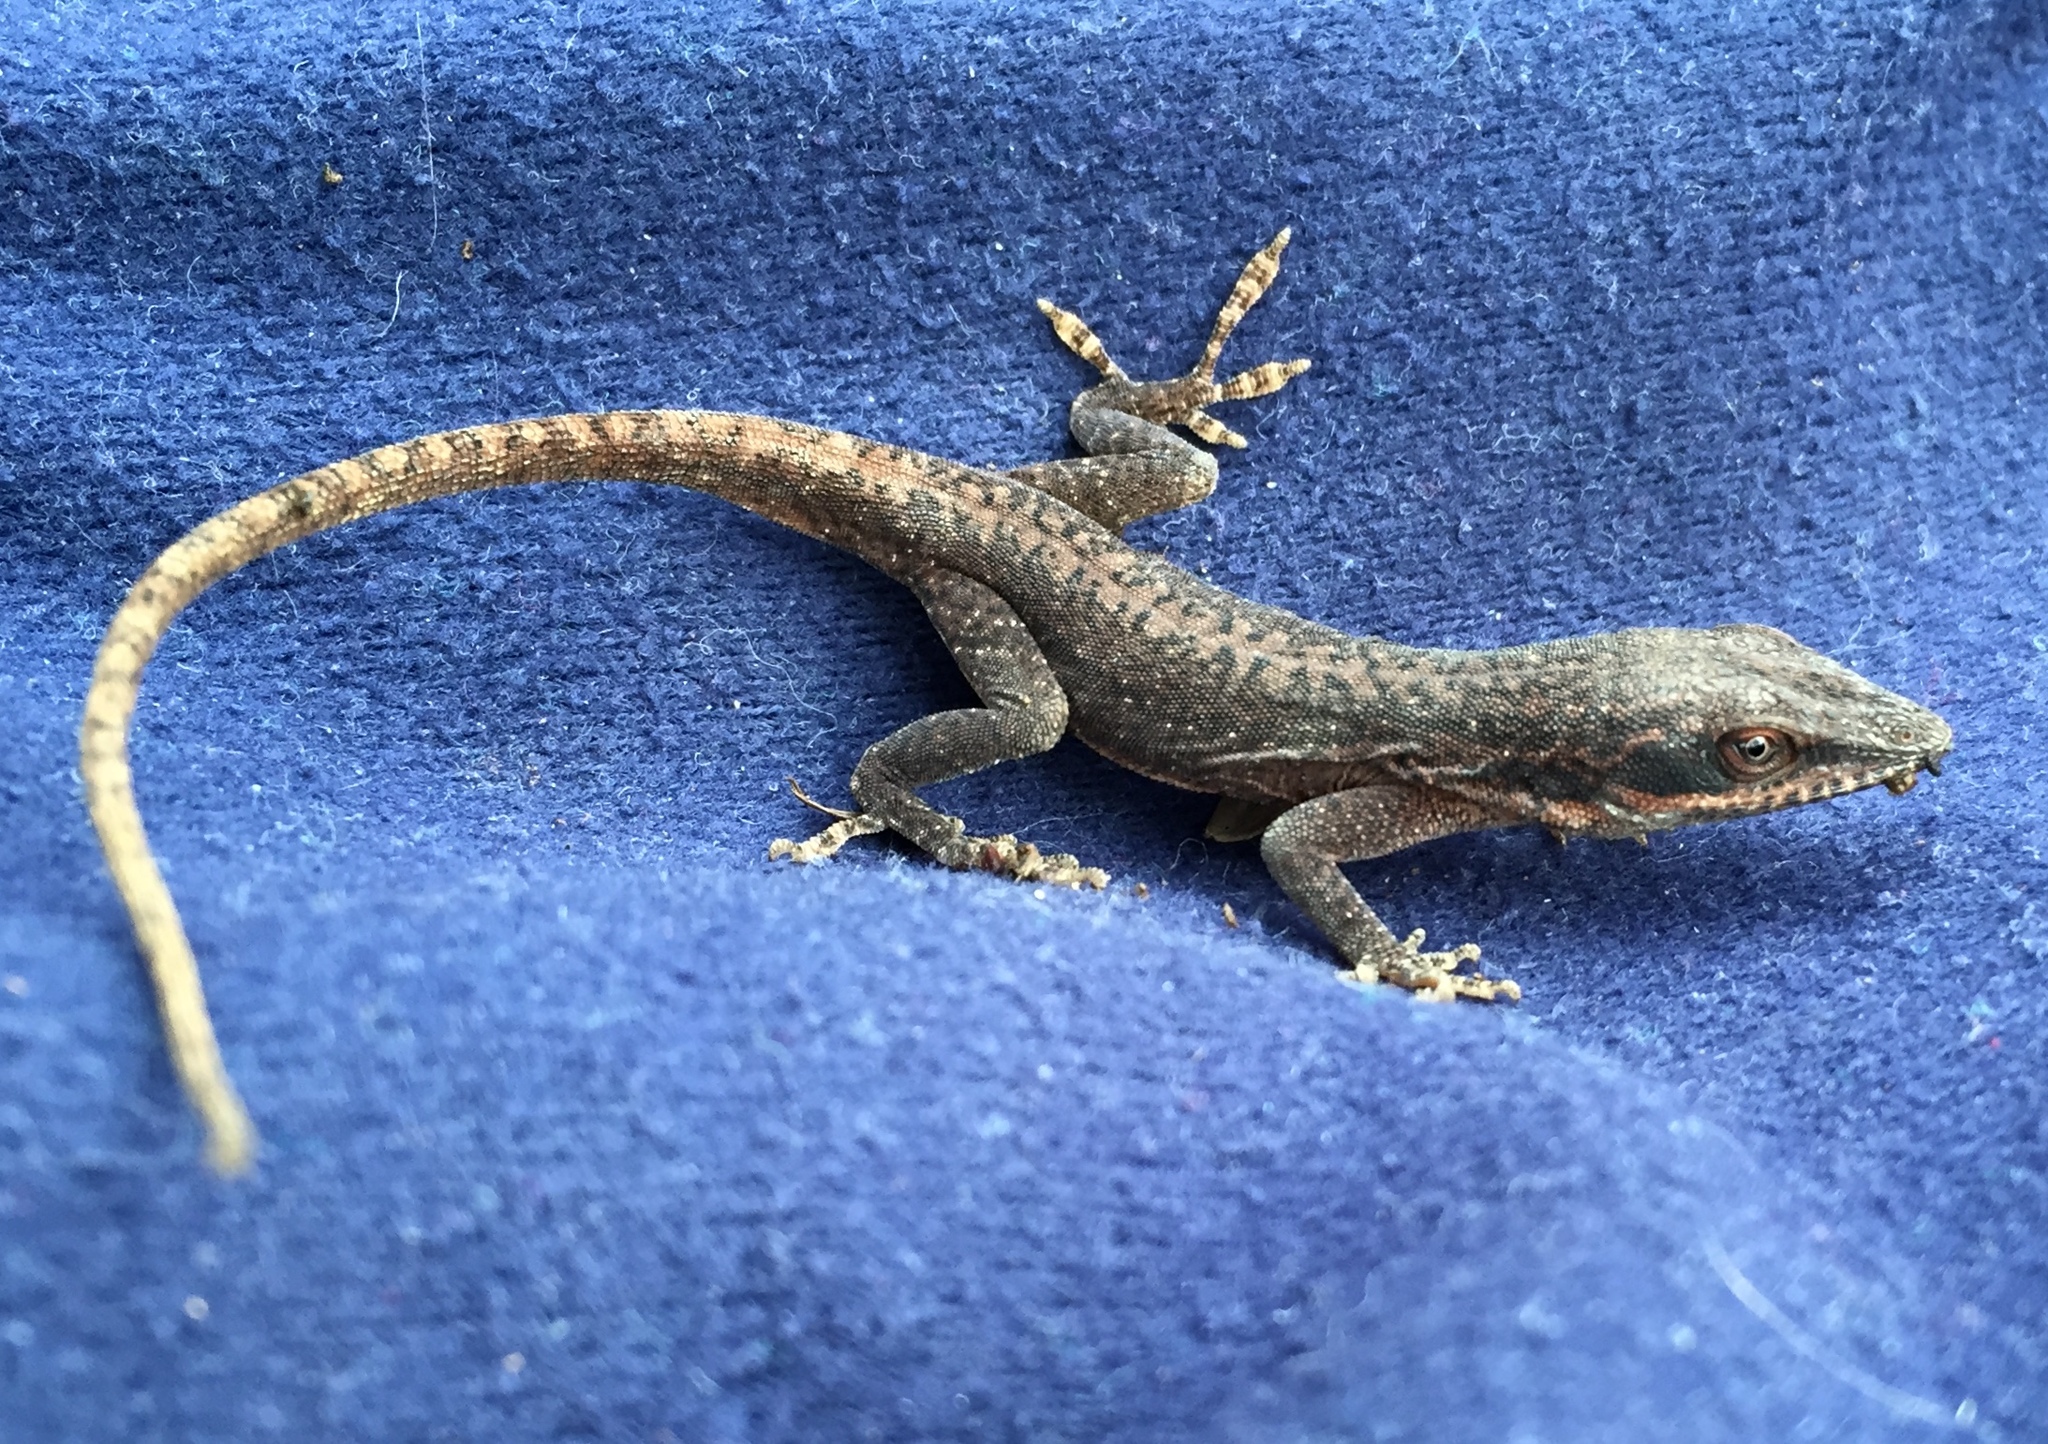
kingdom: Animalia
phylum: Chordata
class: Squamata
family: Dactyloidae
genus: Anolis
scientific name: Anolis carolinensis
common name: Green anole
